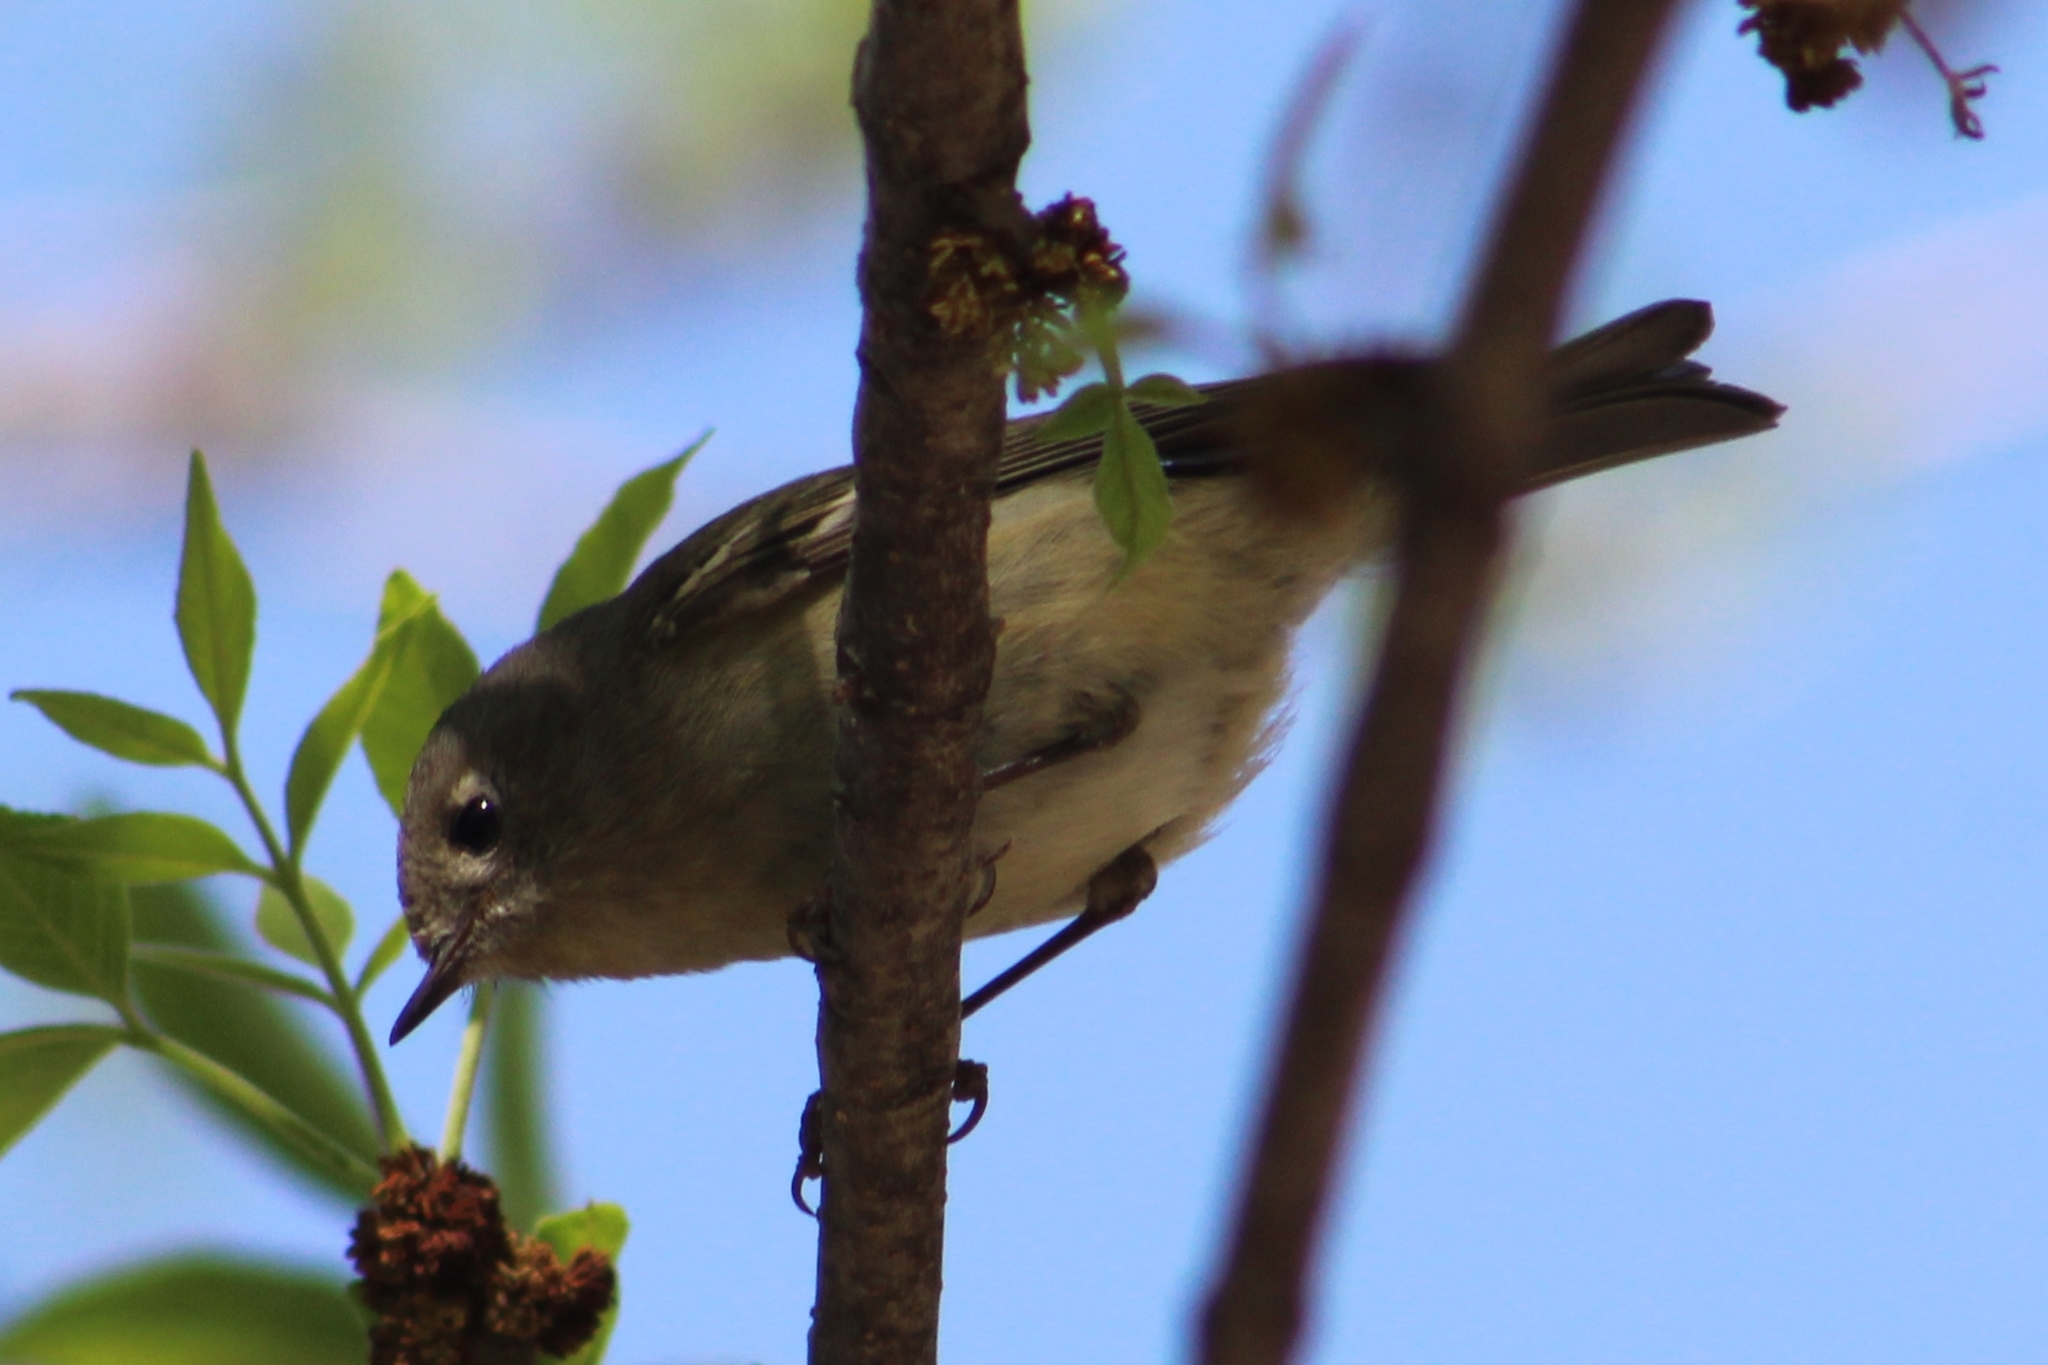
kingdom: Animalia
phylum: Chordata
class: Aves
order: Passeriformes
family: Regulidae
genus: Regulus
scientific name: Regulus calendula
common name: Ruby-crowned kinglet
